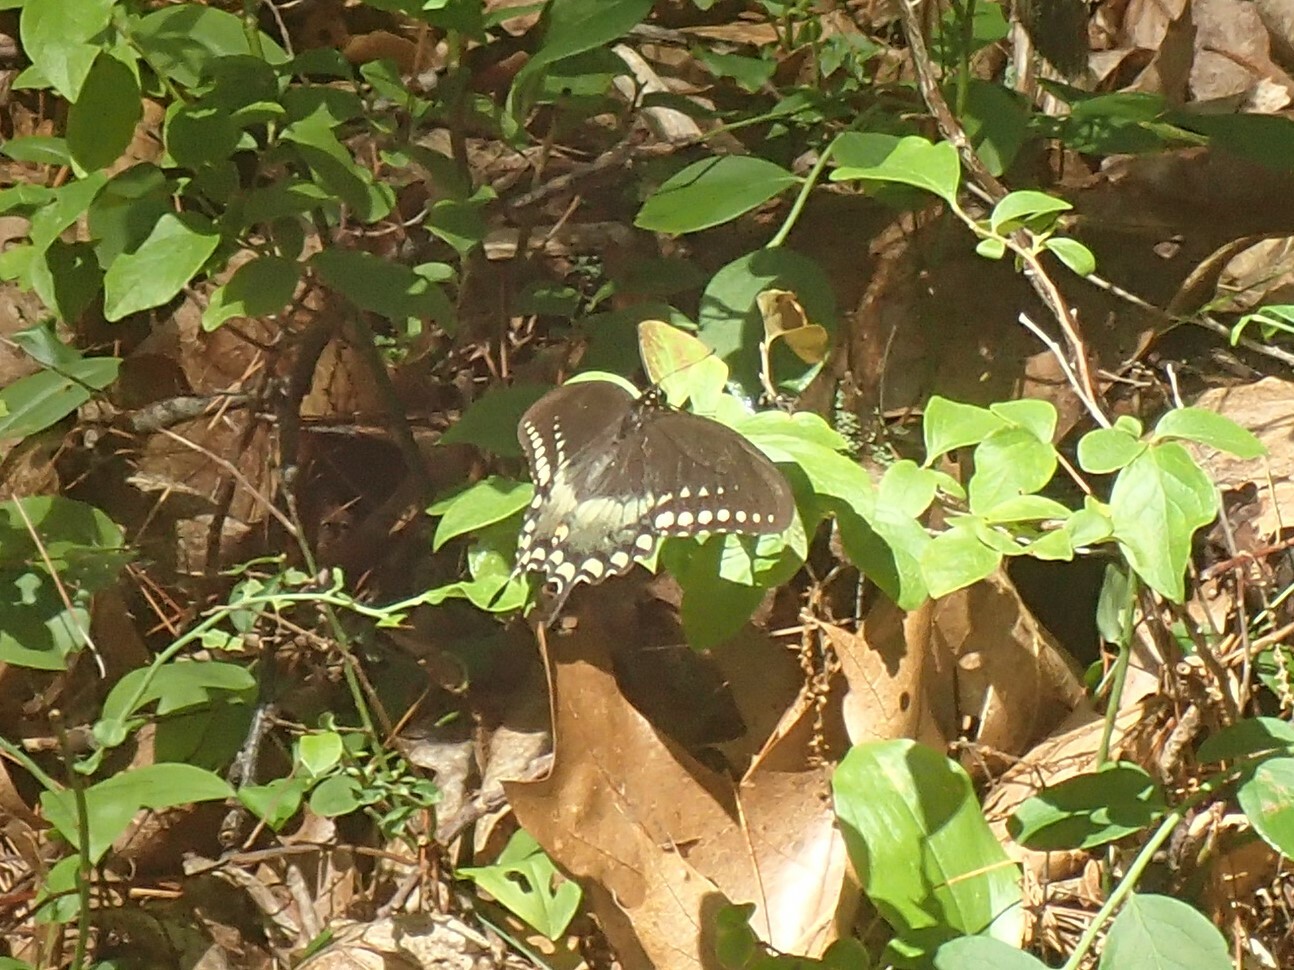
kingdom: Animalia
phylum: Arthropoda
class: Insecta
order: Lepidoptera
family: Papilionidae
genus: Papilio
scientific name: Papilio troilus
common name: Spicebush swallowtail
